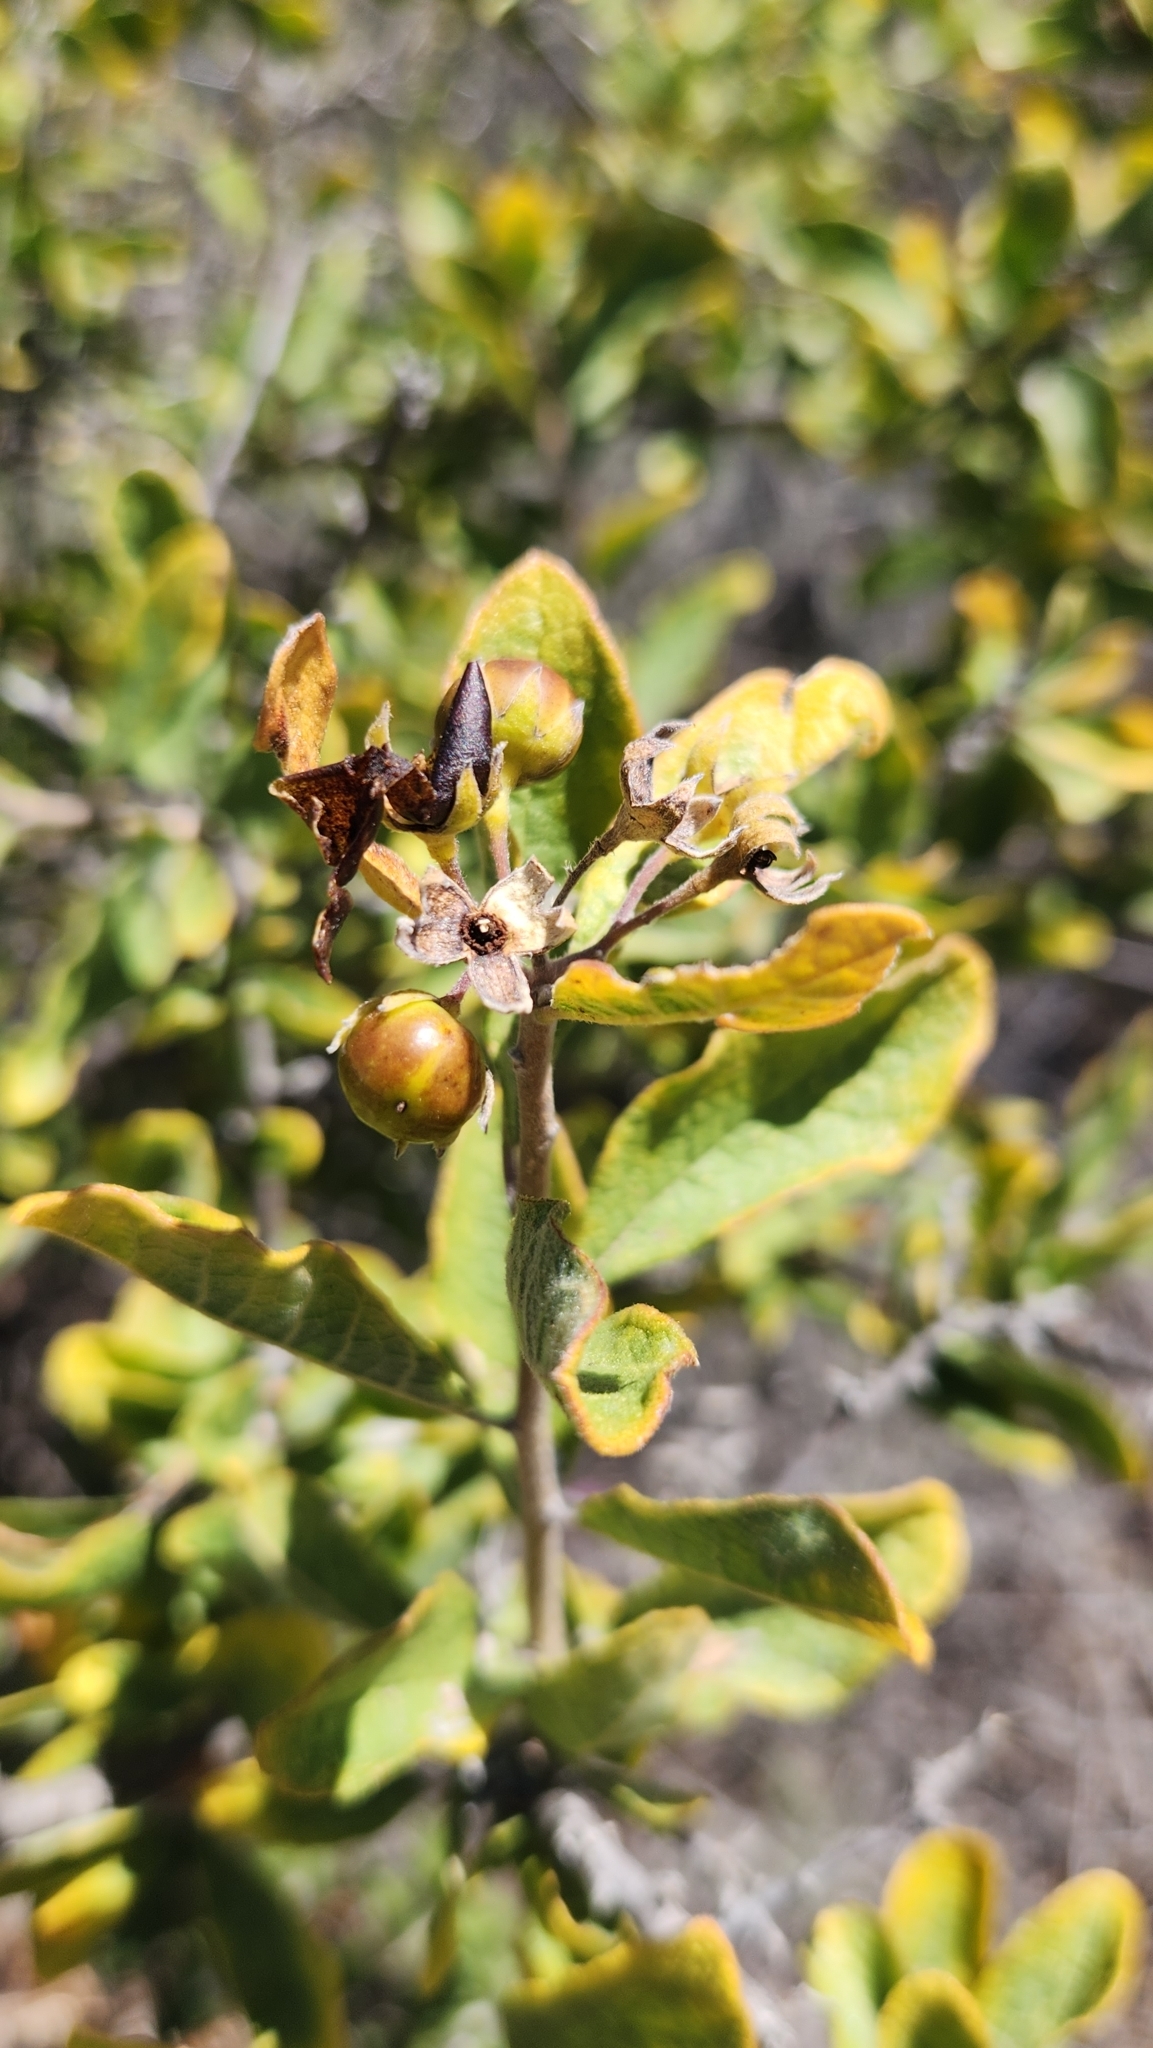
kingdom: Plantae
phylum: Tracheophyta
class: Magnoliopsida
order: Boraginales
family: Ehretiaceae
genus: Bourreria
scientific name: Bourreria sonorae
